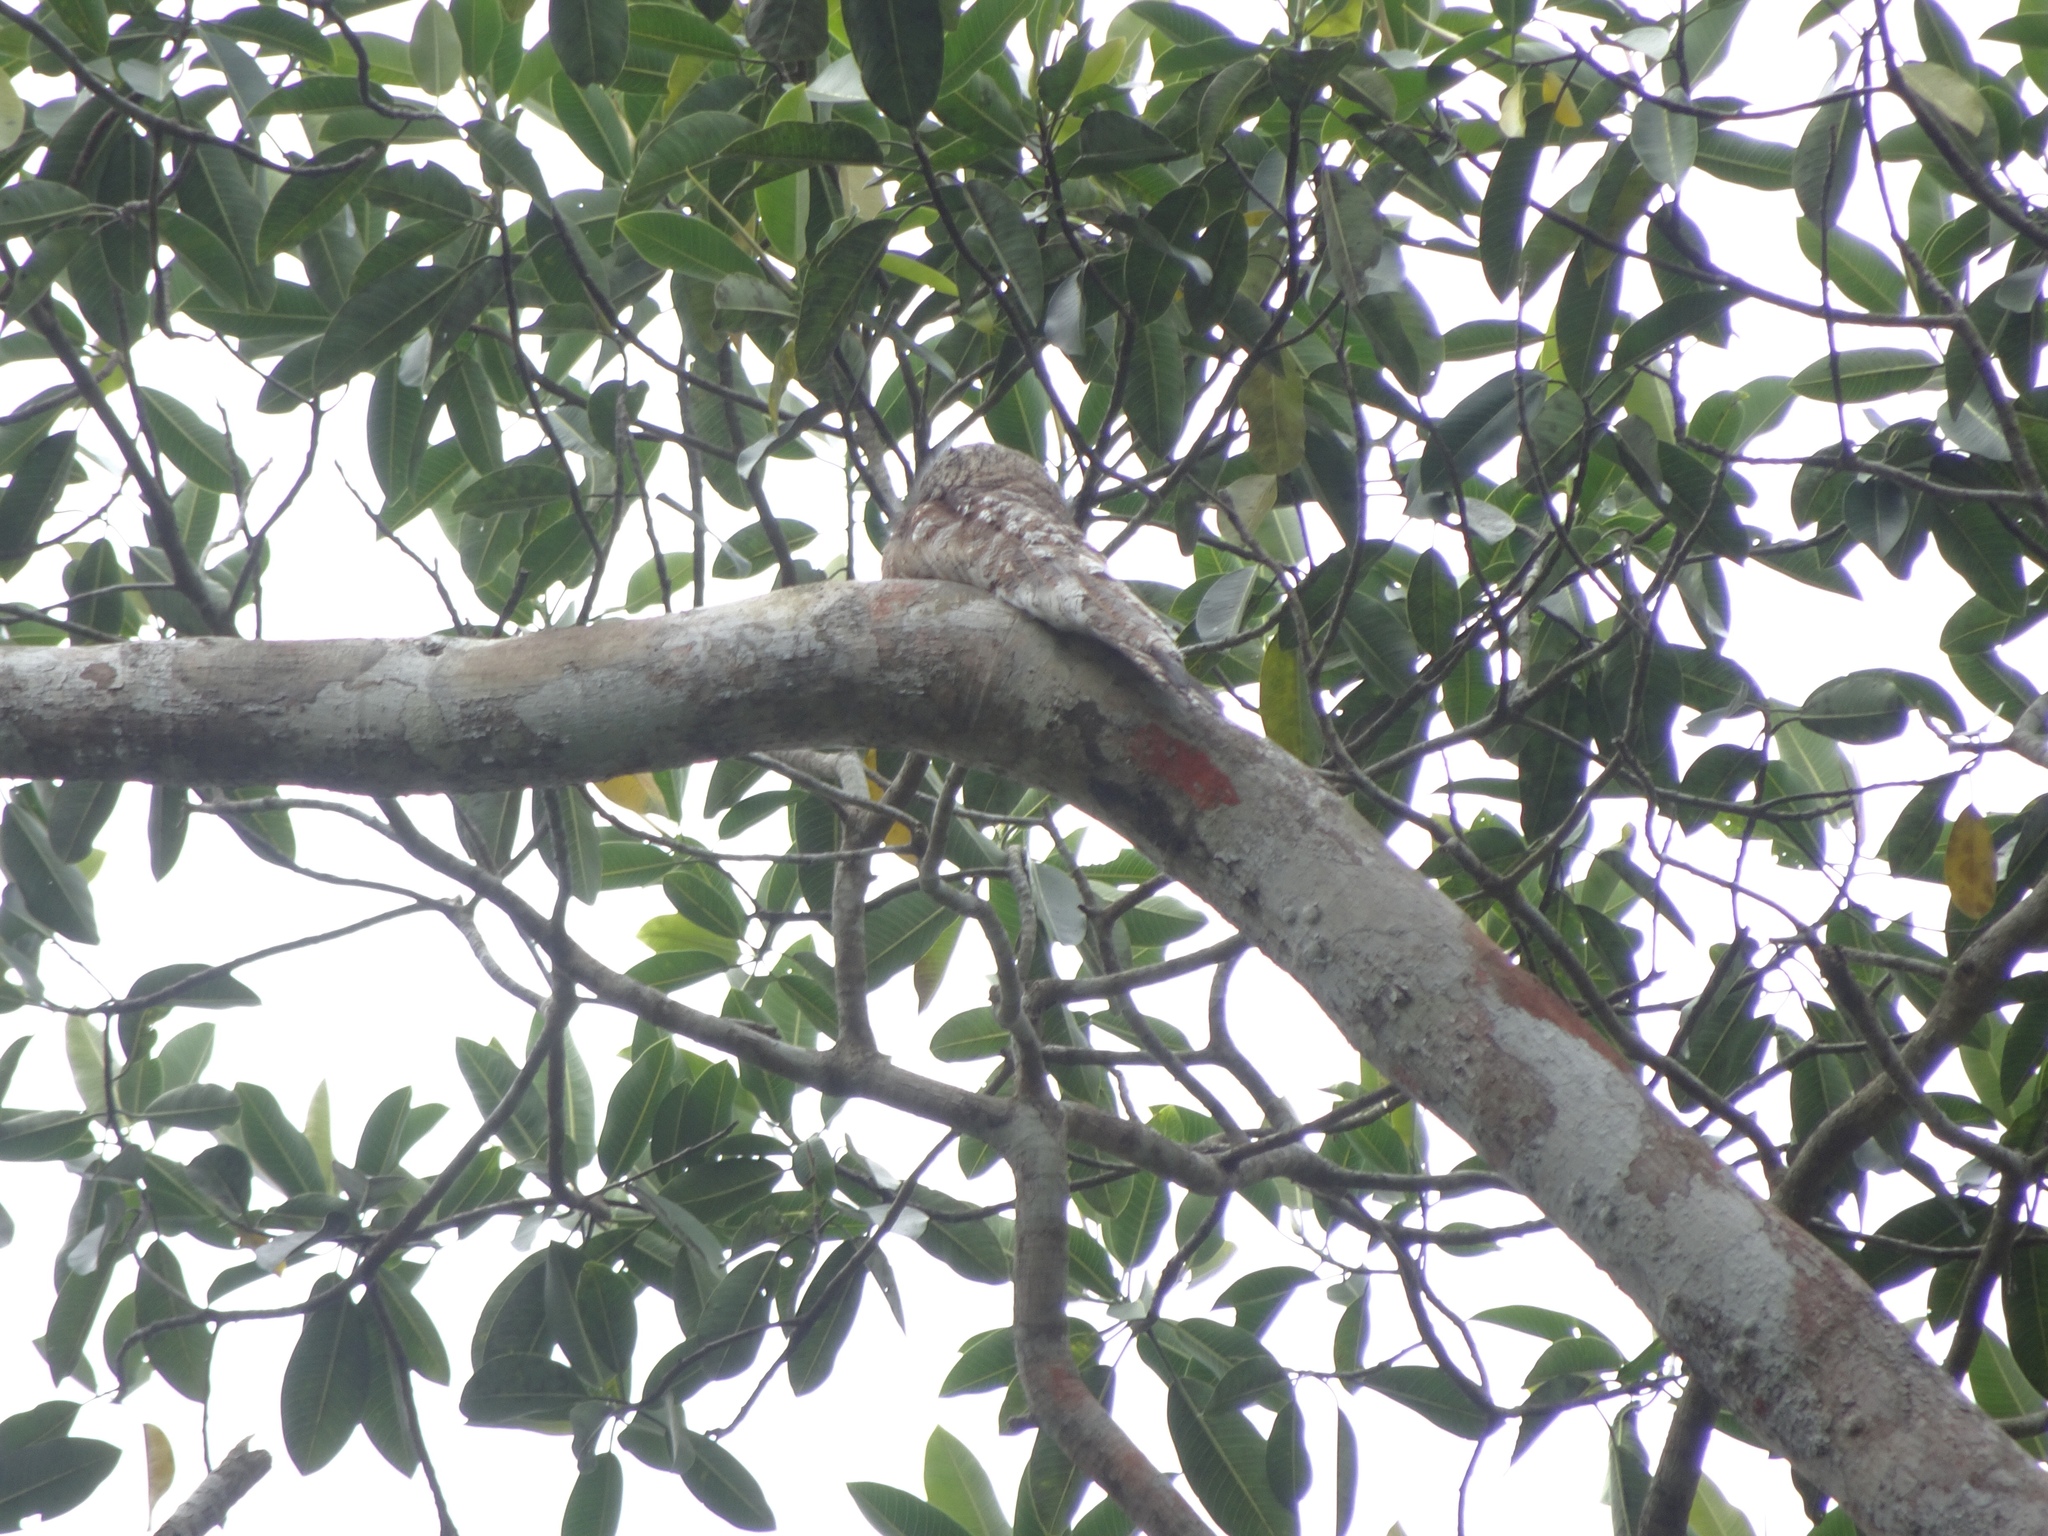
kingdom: Animalia
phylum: Chordata
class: Aves
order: Nyctibiiformes
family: Nyctibiidae
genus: Nyctibius
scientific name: Nyctibius grandis
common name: Great potoo
